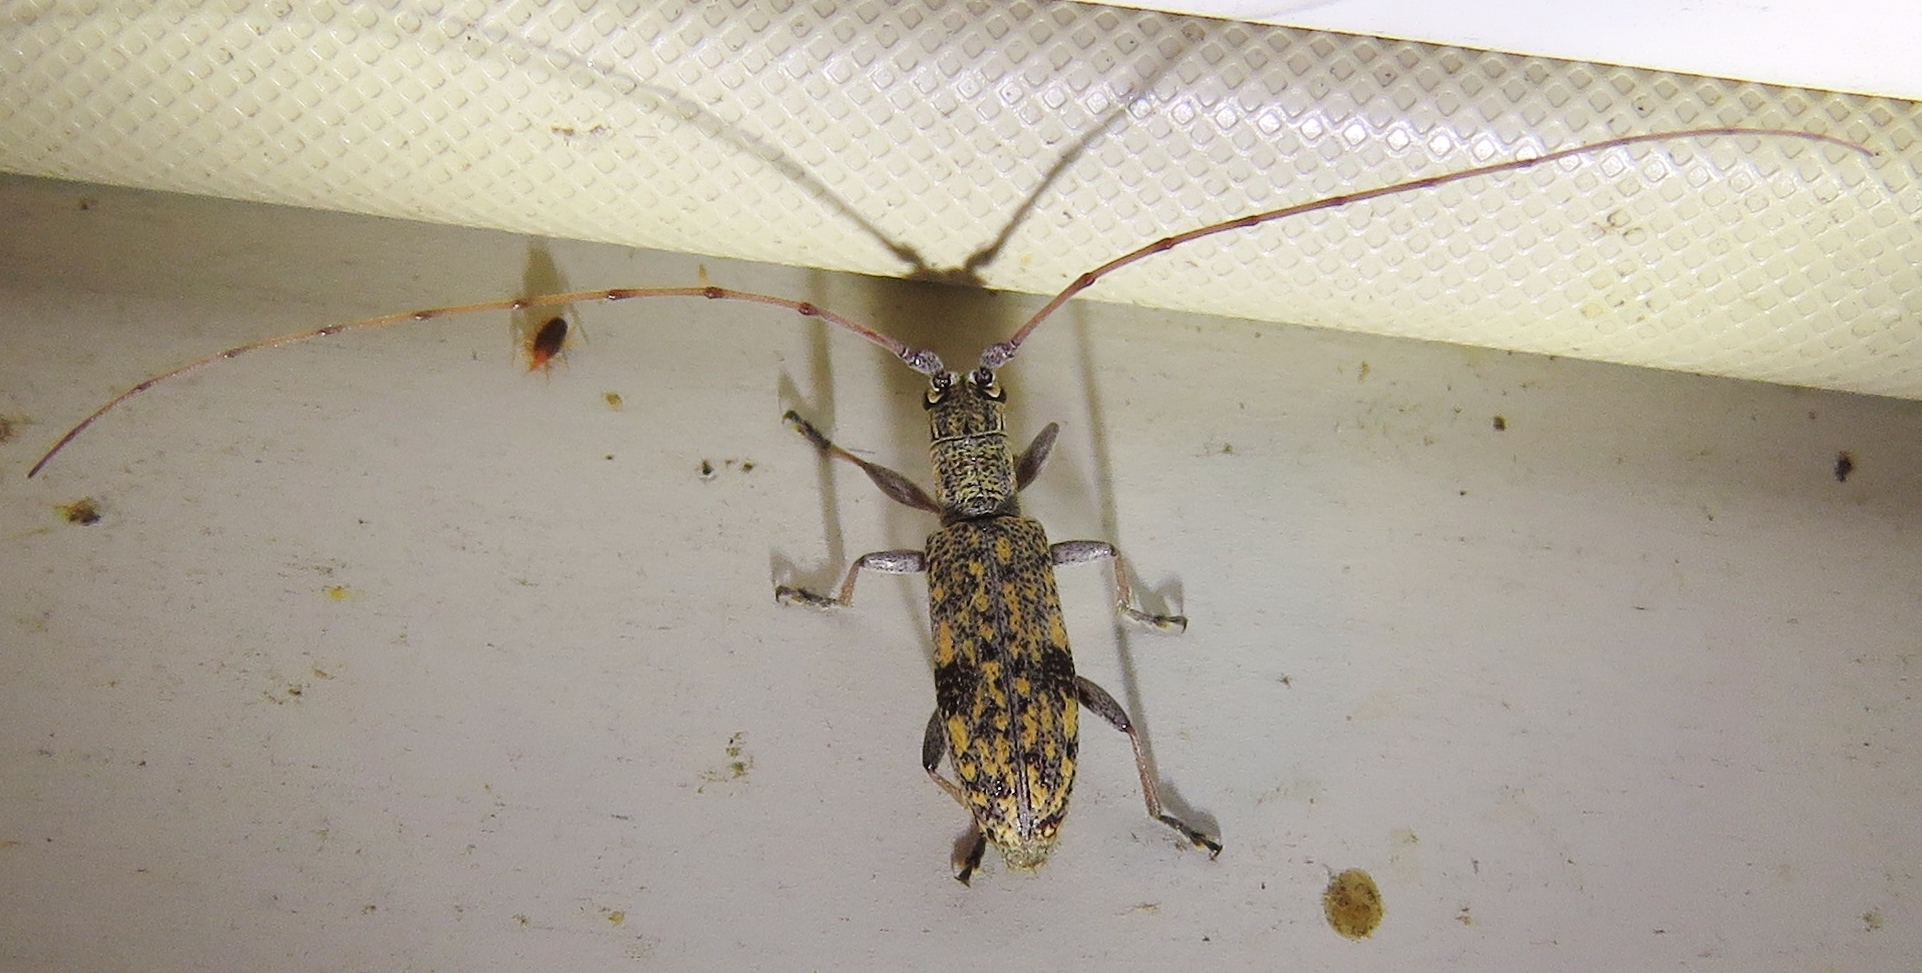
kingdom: Animalia
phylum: Arthropoda
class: Insecta
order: Coleoptera
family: Cerambycidae
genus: Dorcaschema
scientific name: Dorcaschema alternatum
